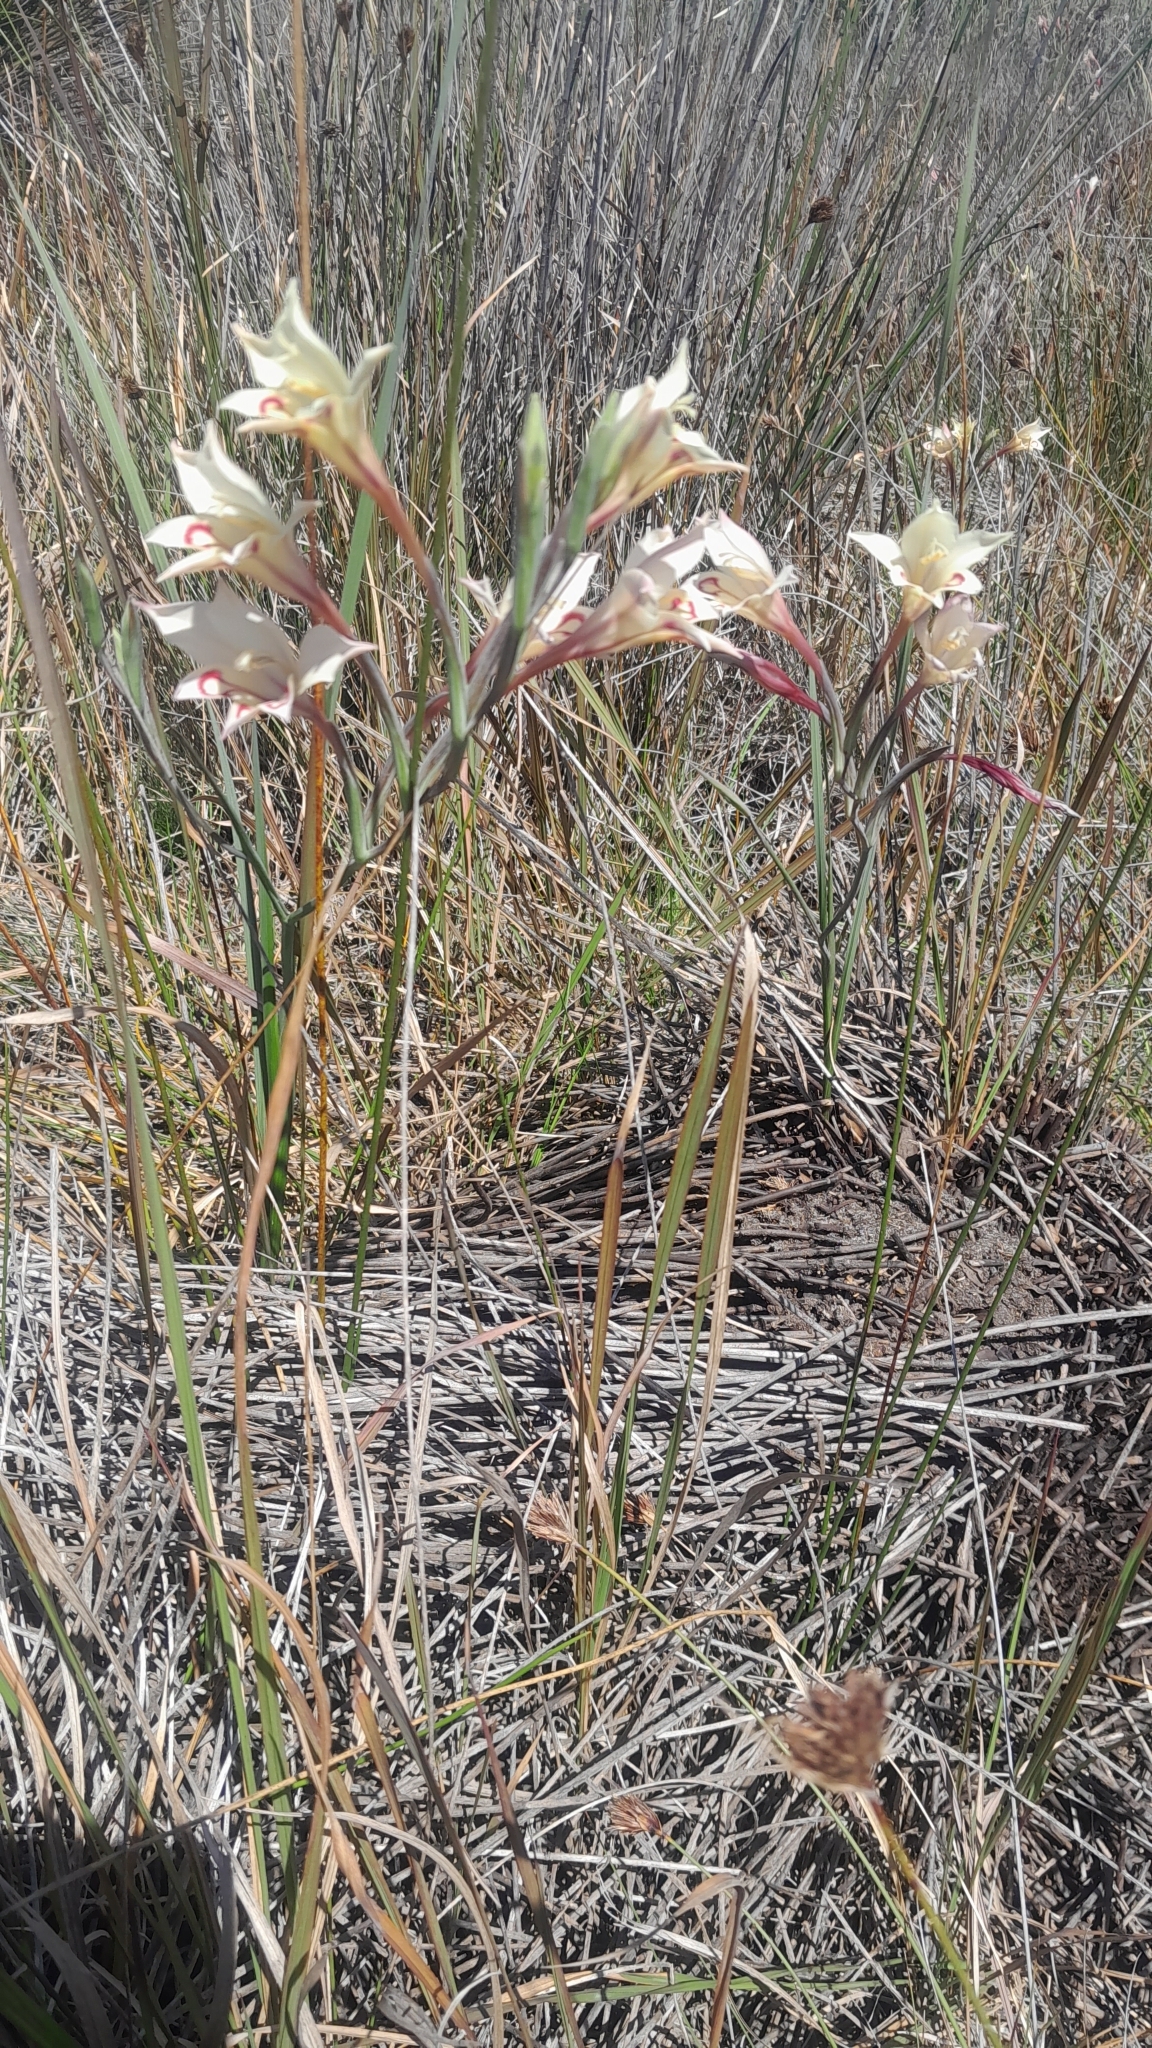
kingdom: Plantae
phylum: Tracheophyta
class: Liliopsida
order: Asparagales
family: Iridaceae
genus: Gladiolus
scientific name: Gladiolus angustus
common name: Painted-lady
